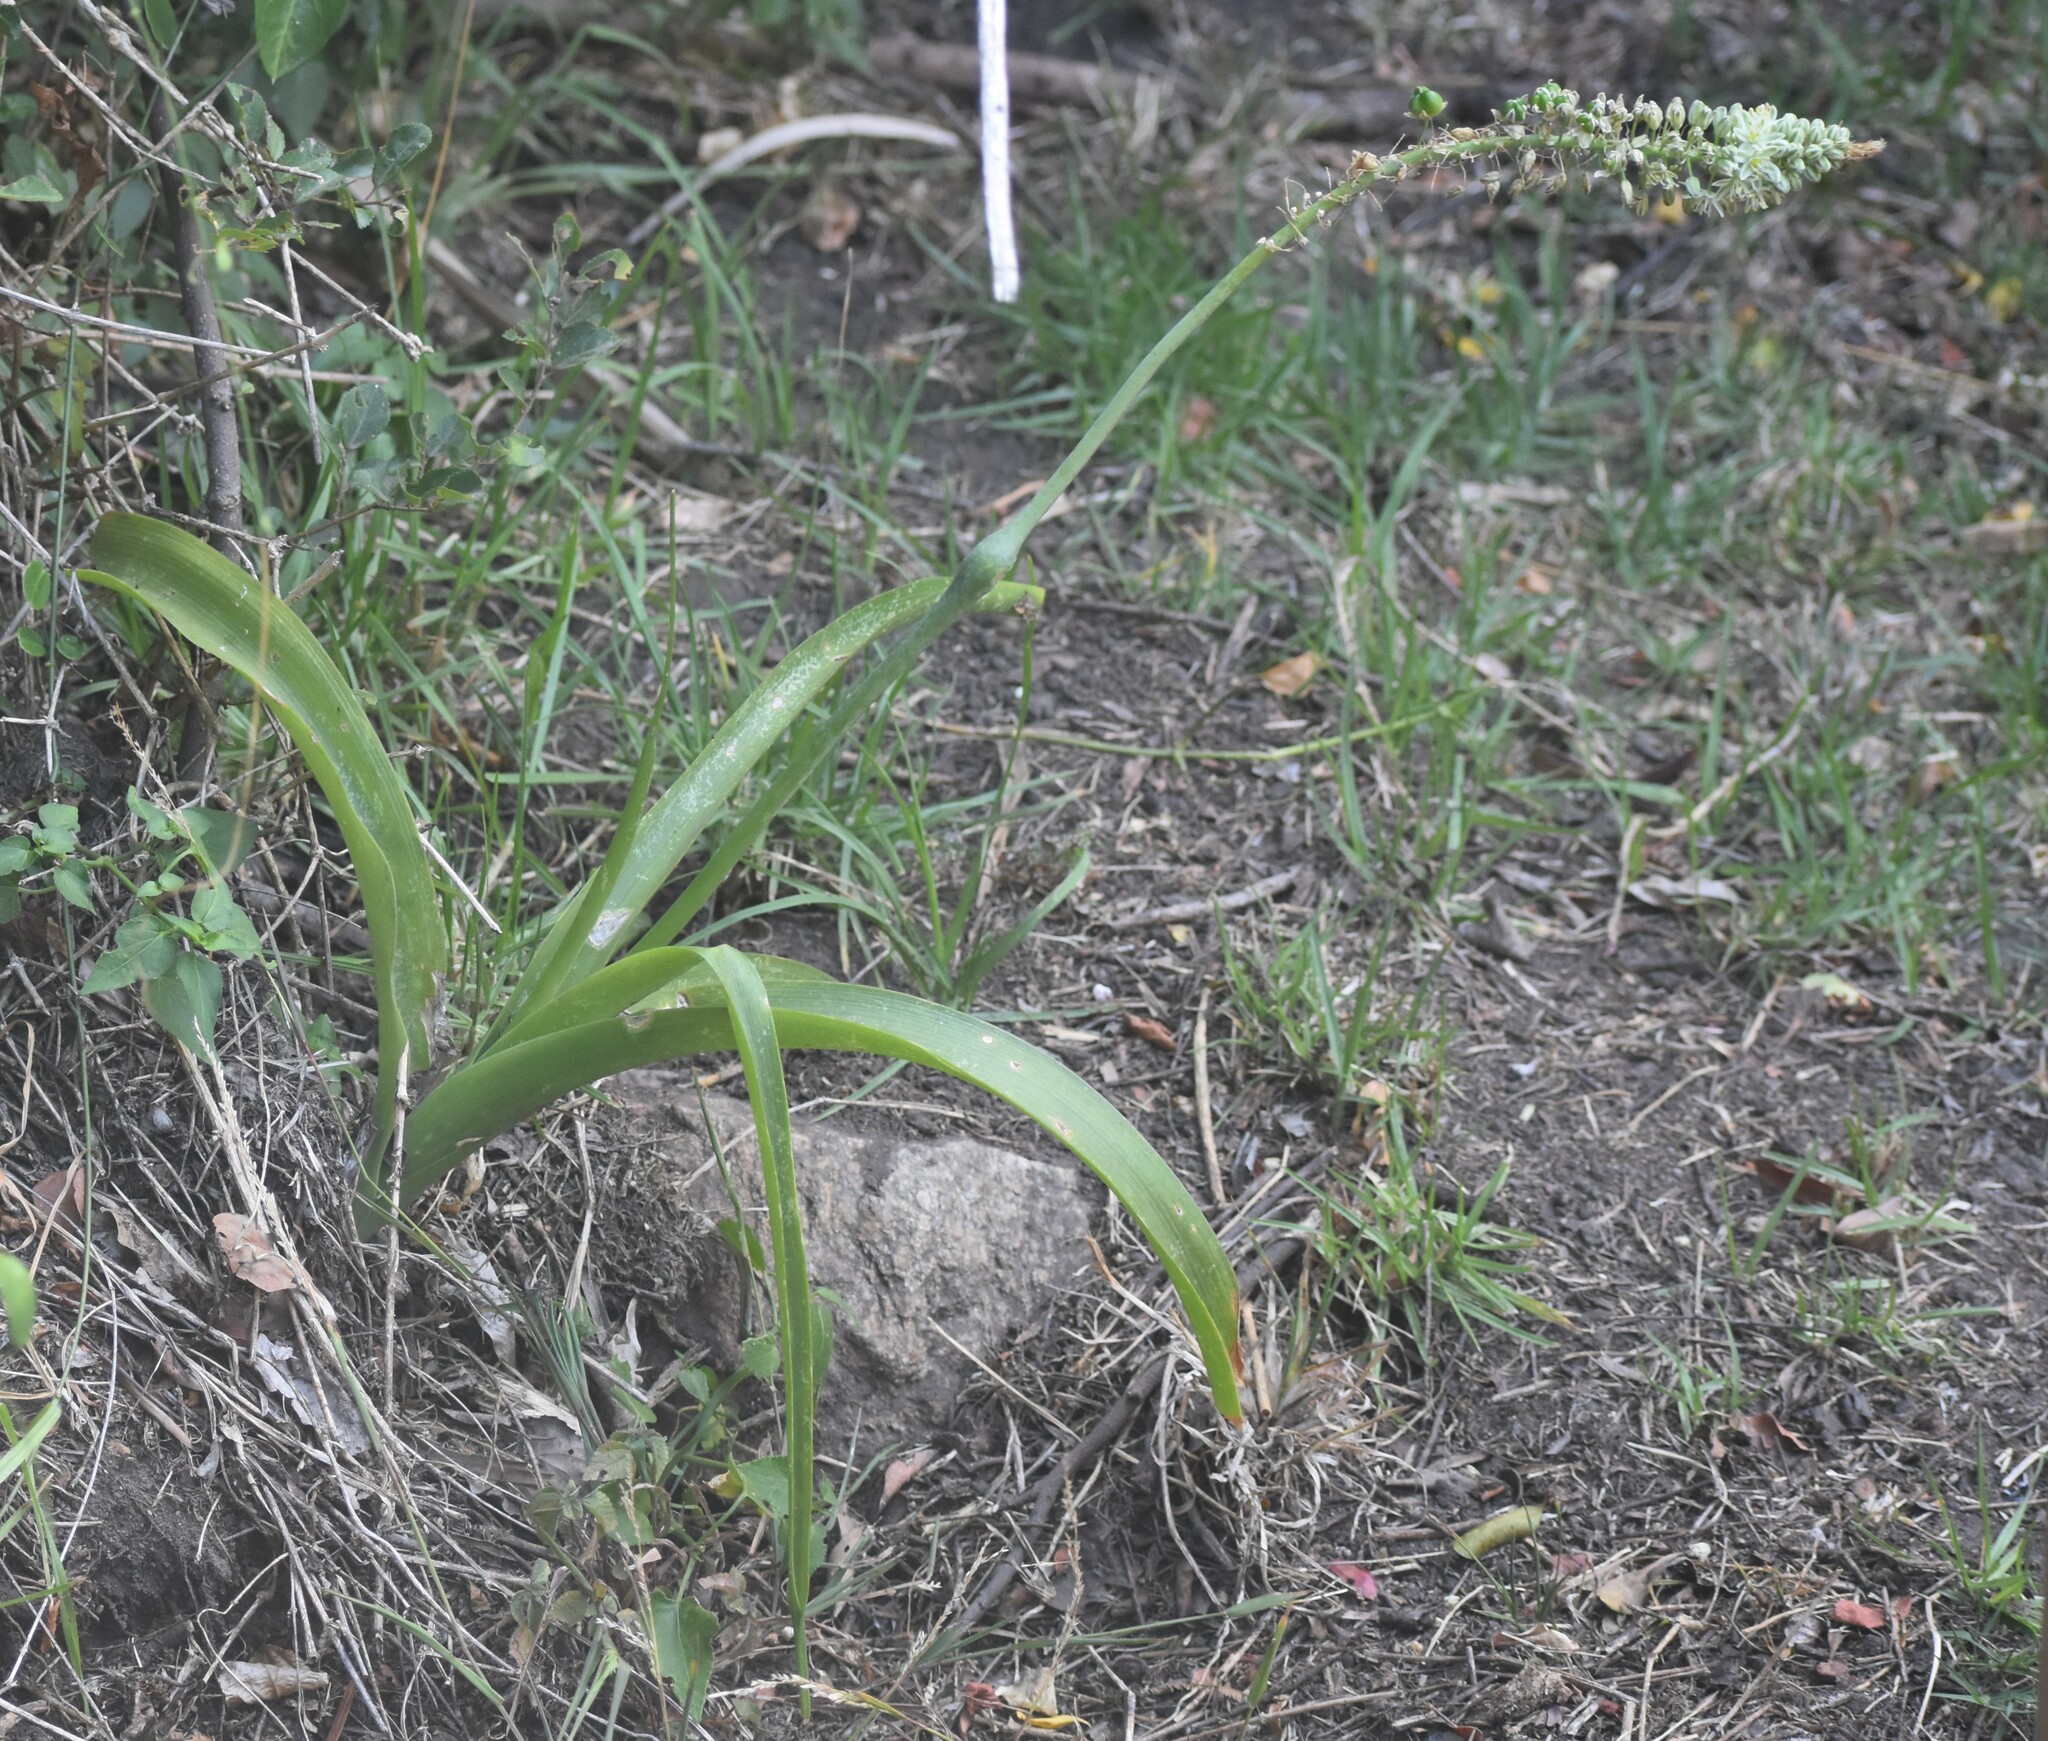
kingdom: Plantae
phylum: Tracheophyta
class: Liliopsida
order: Asparagales
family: Asparagaceae
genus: Albuca
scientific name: Albuca bracteata
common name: Sea-onion
